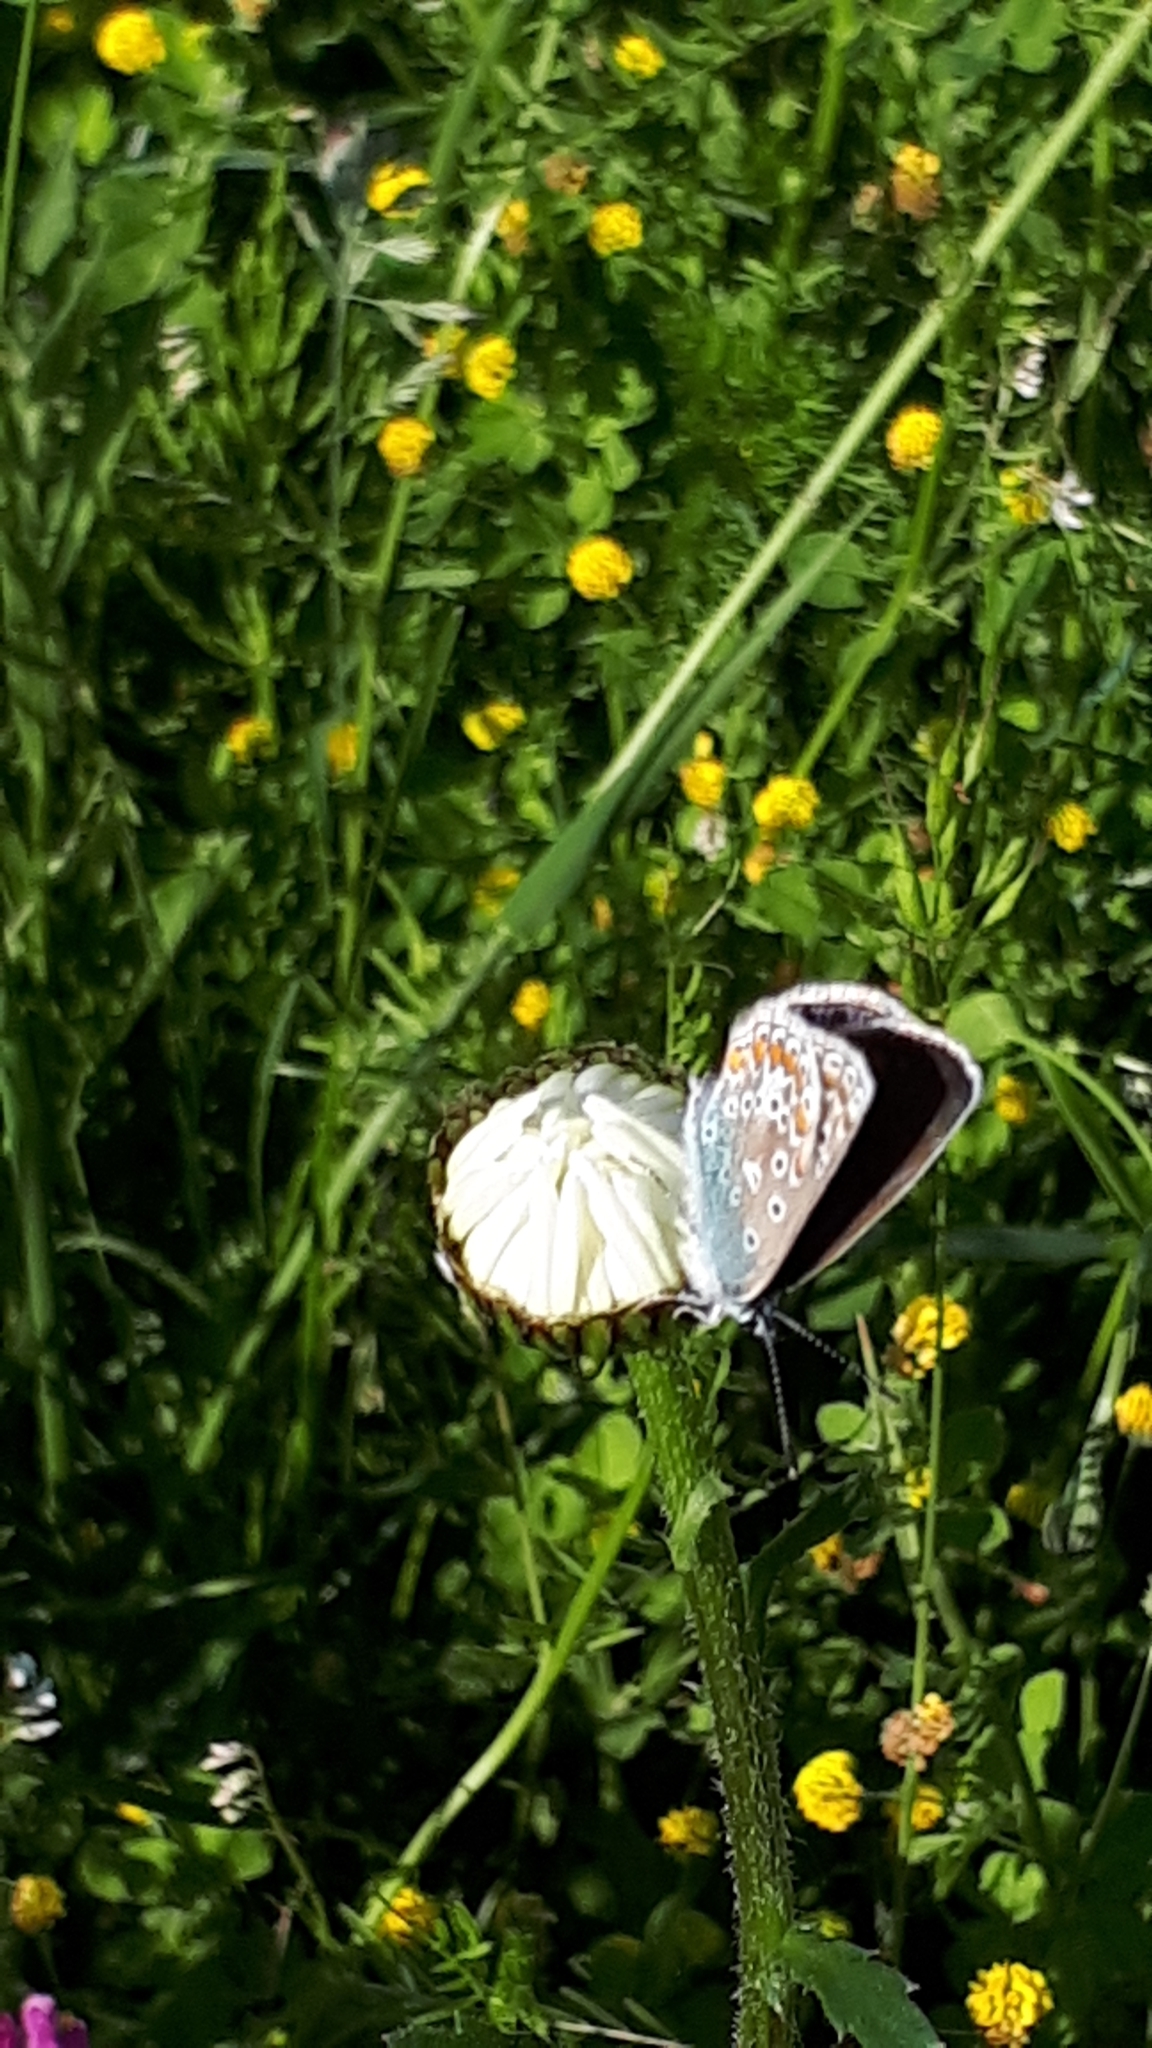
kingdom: Animalia
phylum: Arthropoda
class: Insecta
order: Lepidoptera
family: Lycaenidae
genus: Polyommatus
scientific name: Polyommatus icarus
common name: Common blue
